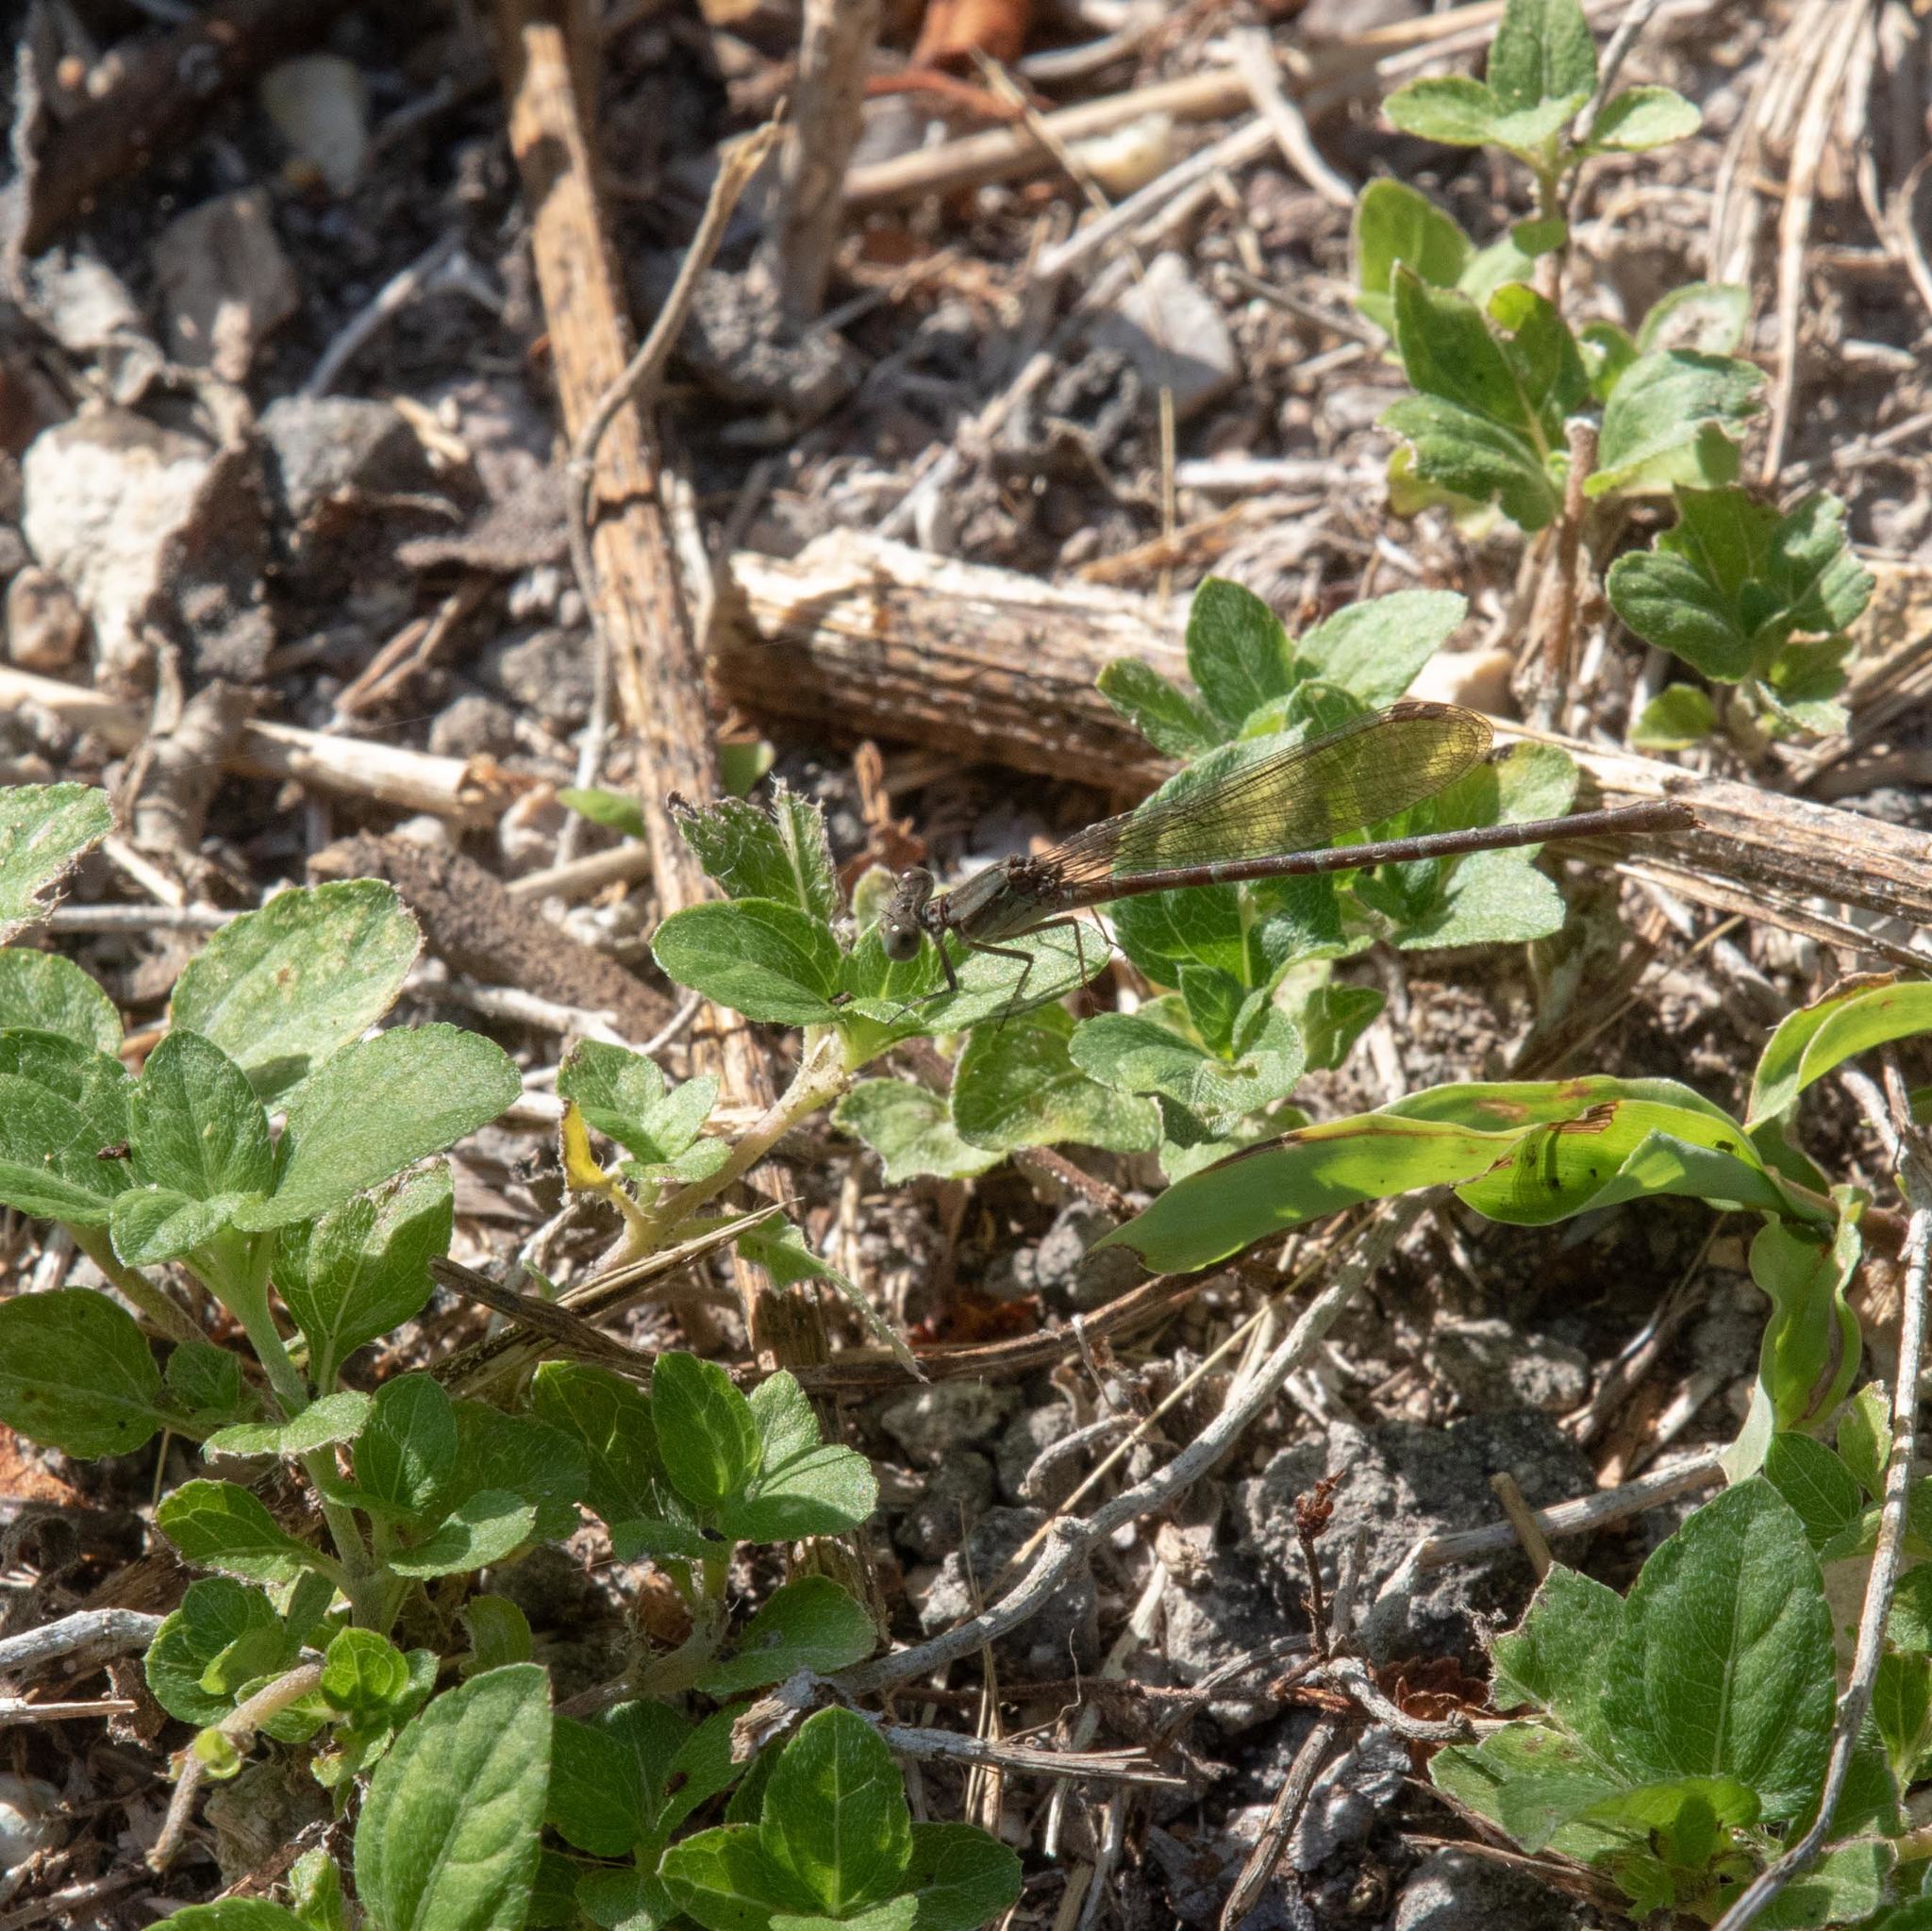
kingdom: Animalia
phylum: Arthropoda
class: Insecta
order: Odonata
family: Coenagrionidae
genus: Argia
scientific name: Argia sedula
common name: Blue-ringed dancer
